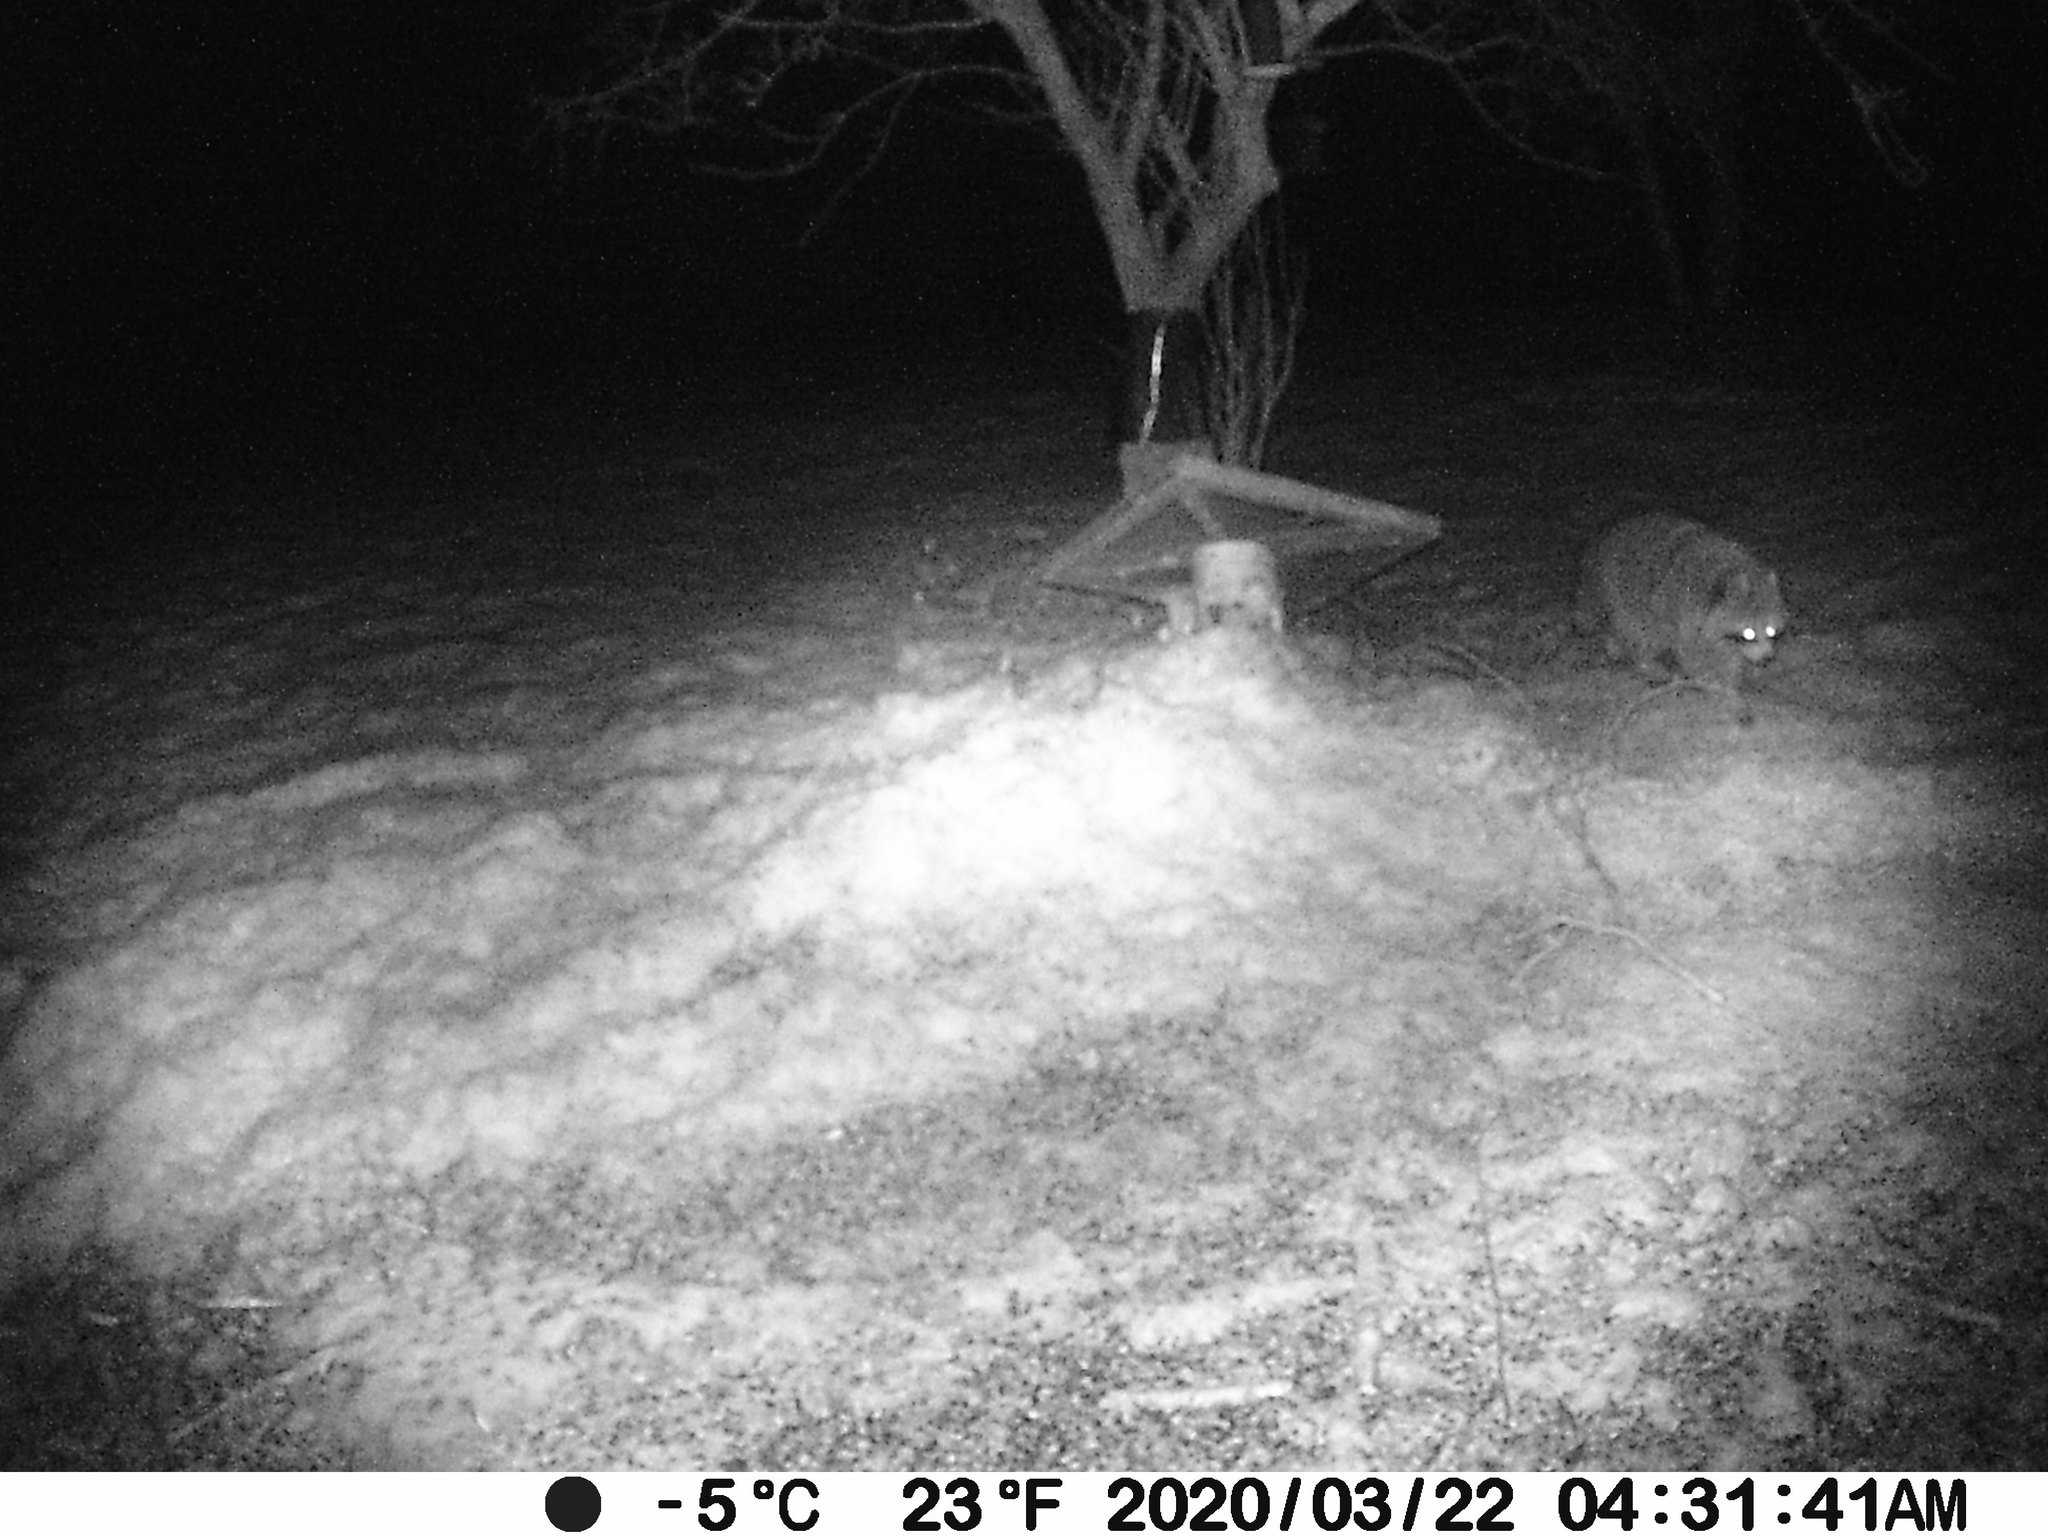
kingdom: Animalia
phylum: Chordata
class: Mammalia
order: Carnivora
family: Procyonidae
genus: Procyon
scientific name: Procyon lotor
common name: Raccoon
